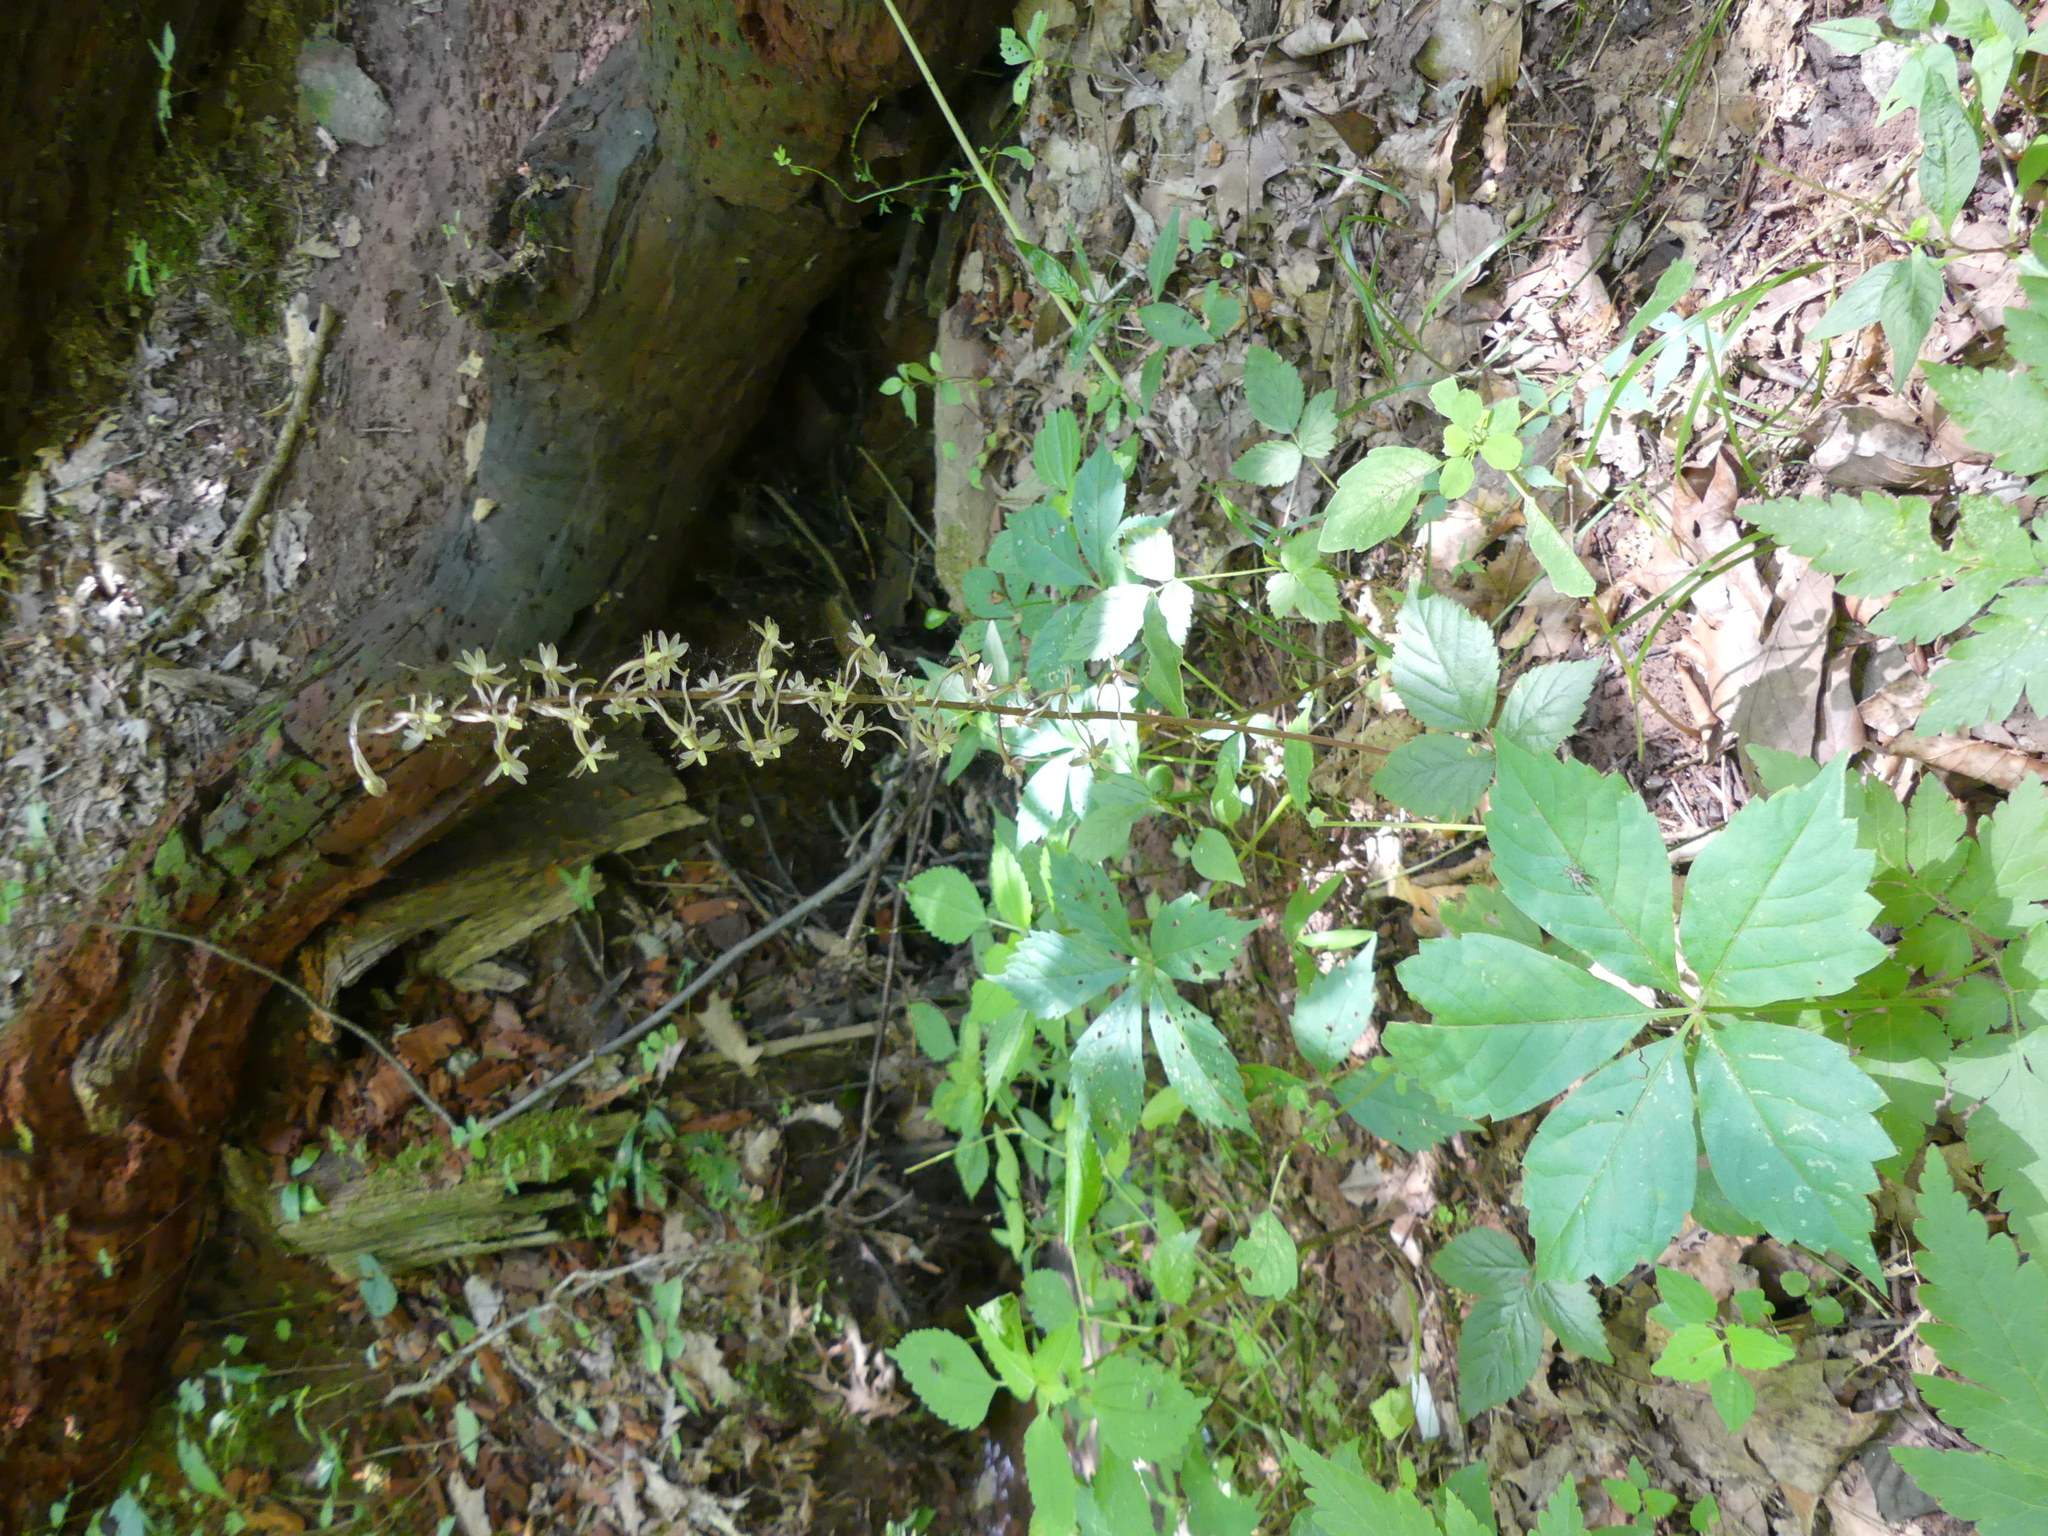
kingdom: Plantae
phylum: Tracheophyta
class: Liliopsida
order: Asparagales
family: Orchidaceae
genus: Tipularia
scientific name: Tipularia discolor
